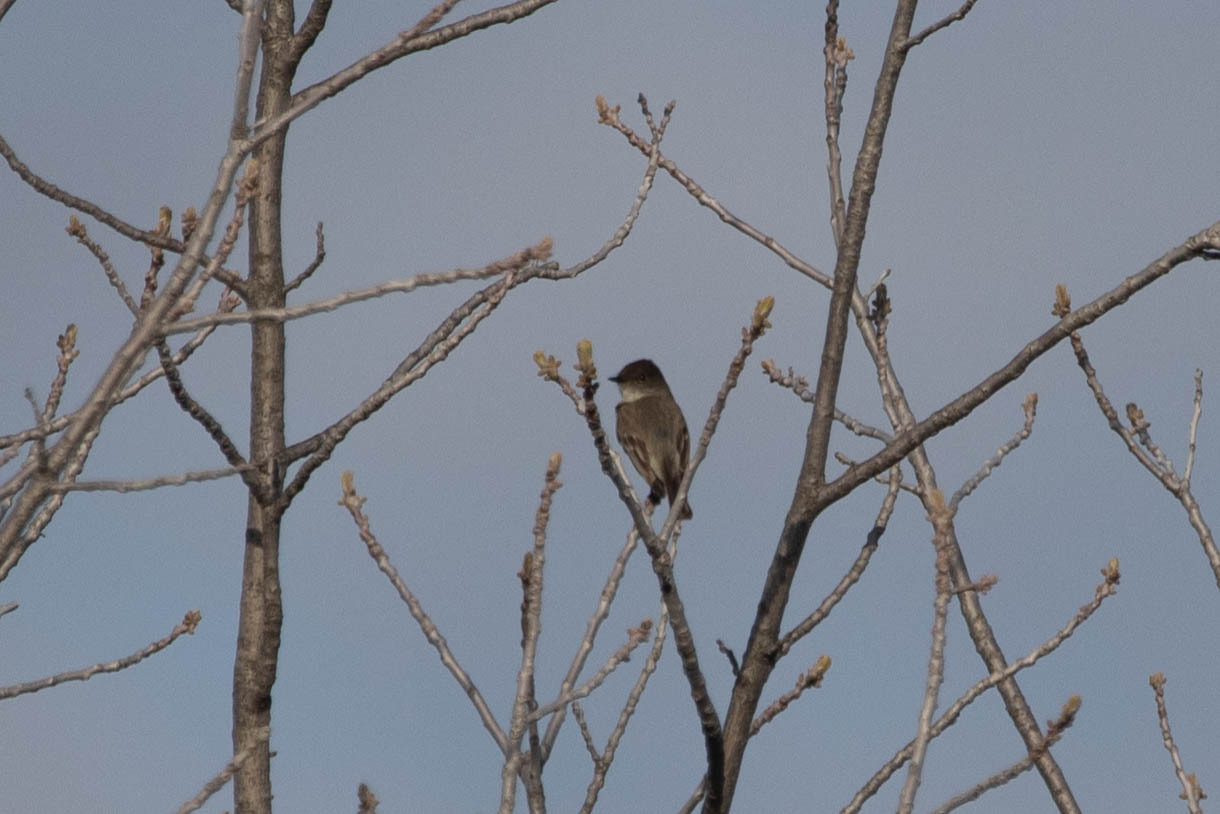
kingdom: Animalia
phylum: Chordata
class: Aves
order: Passeriformes
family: Tyrannidae
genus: Sayornis
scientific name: Sayornis phoebe
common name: Eastern phoebe
